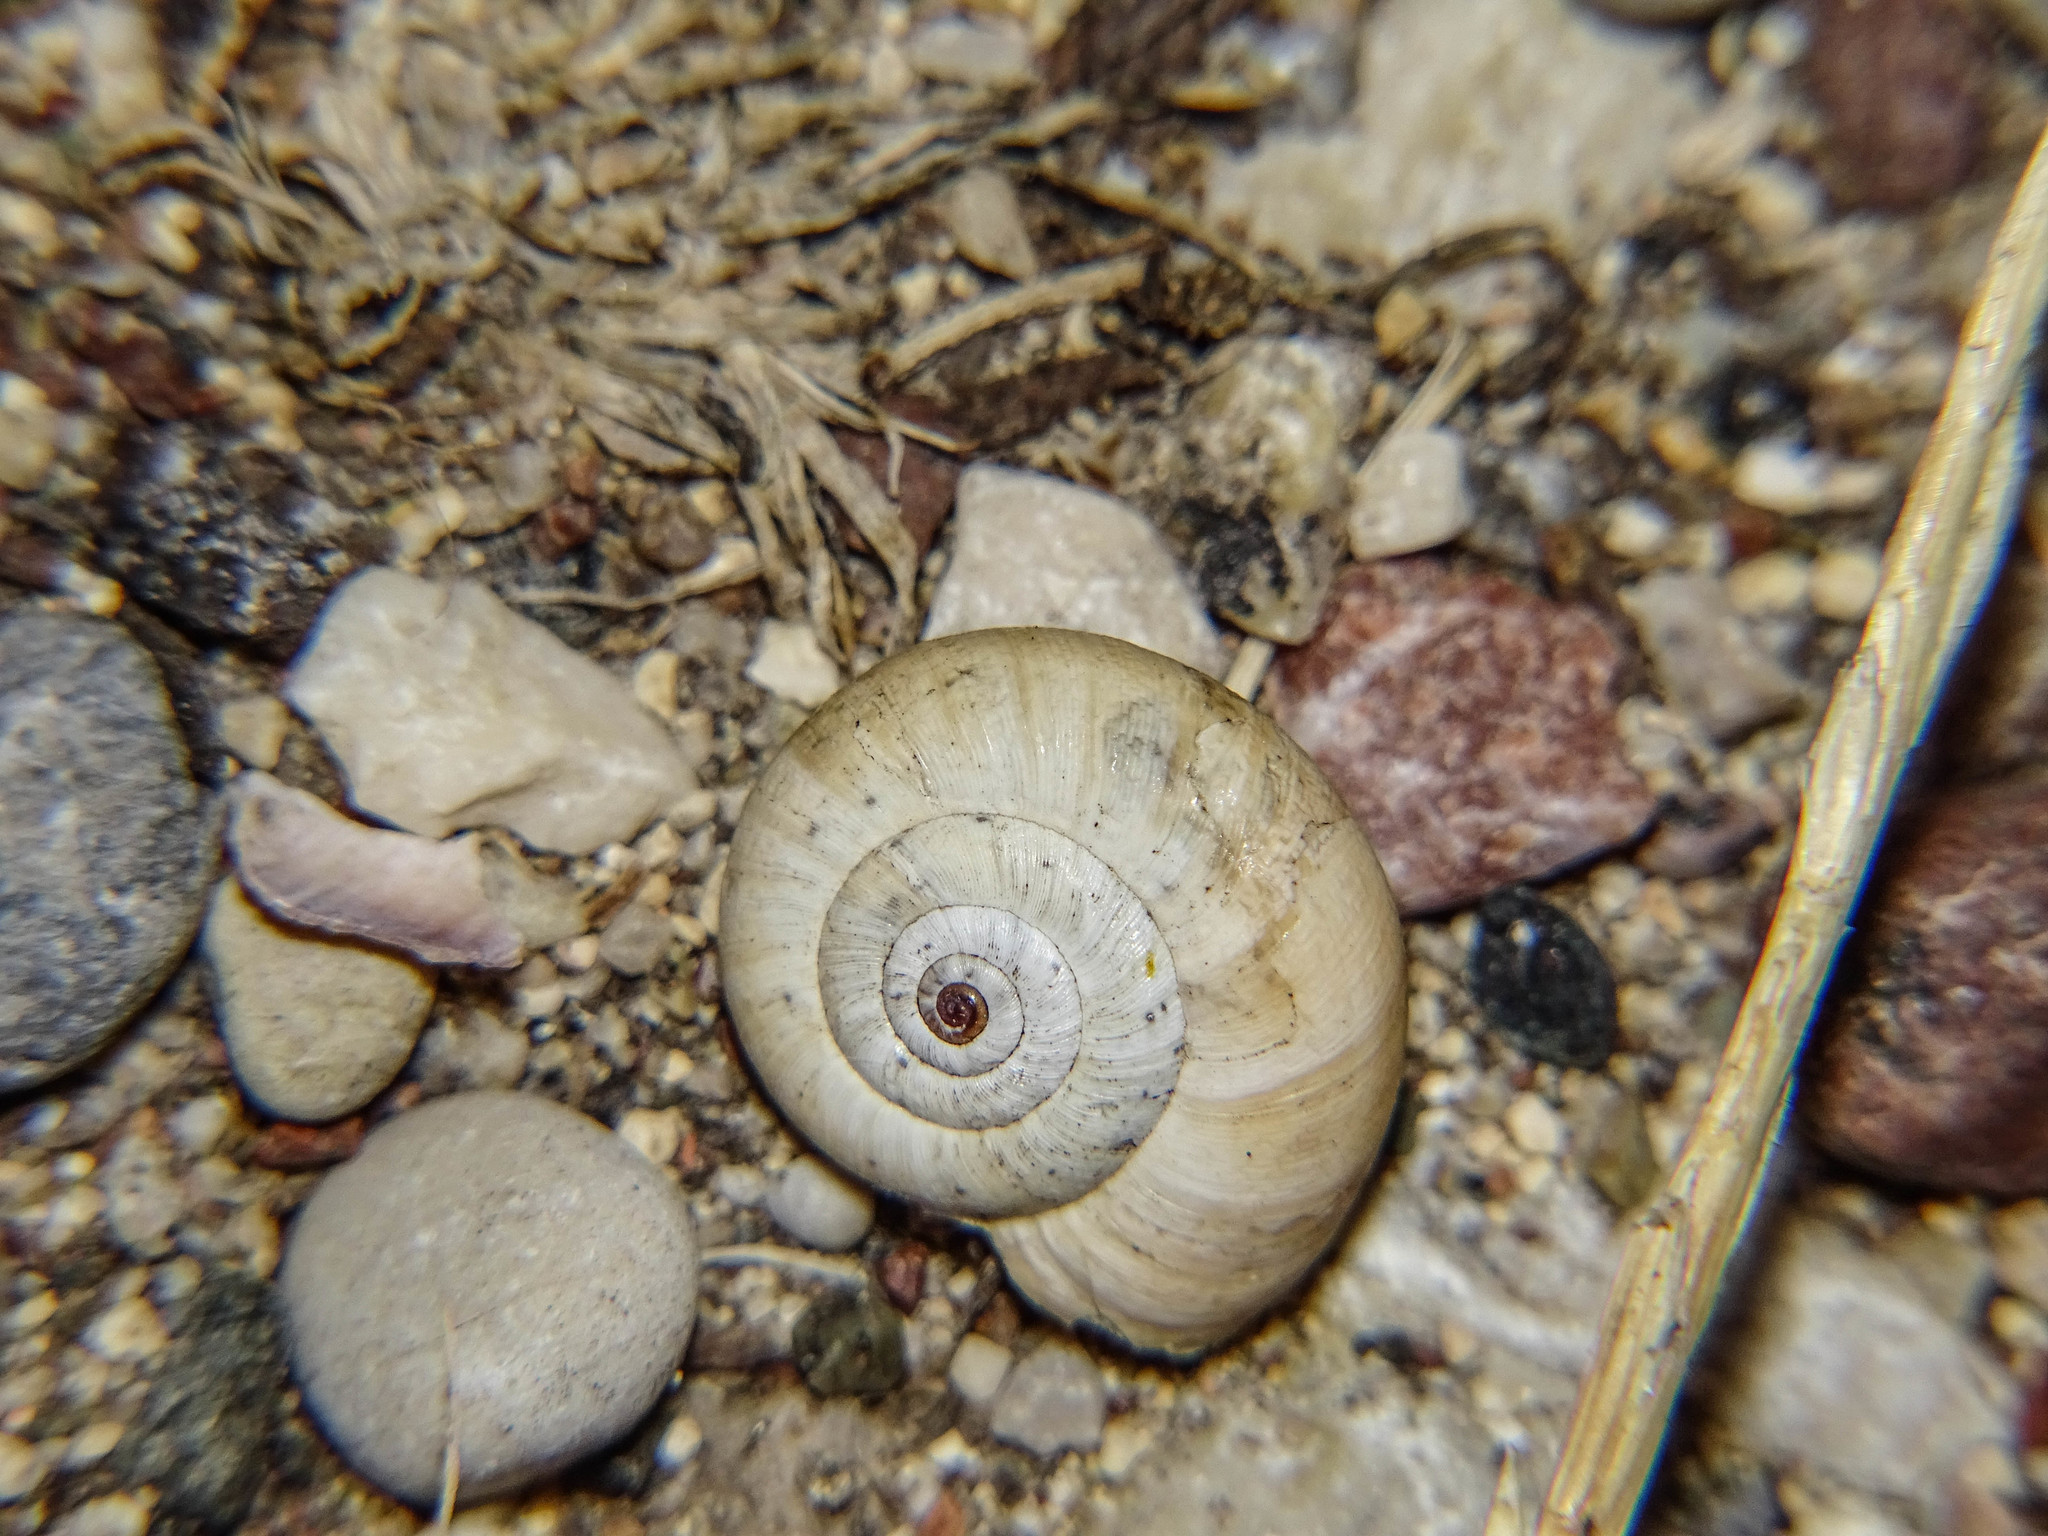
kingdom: Animalia
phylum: Mollusca
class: Gastropoda
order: Stylommatophora
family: Geomitridae
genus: Xeropicta
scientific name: Xeropicta krynickii
